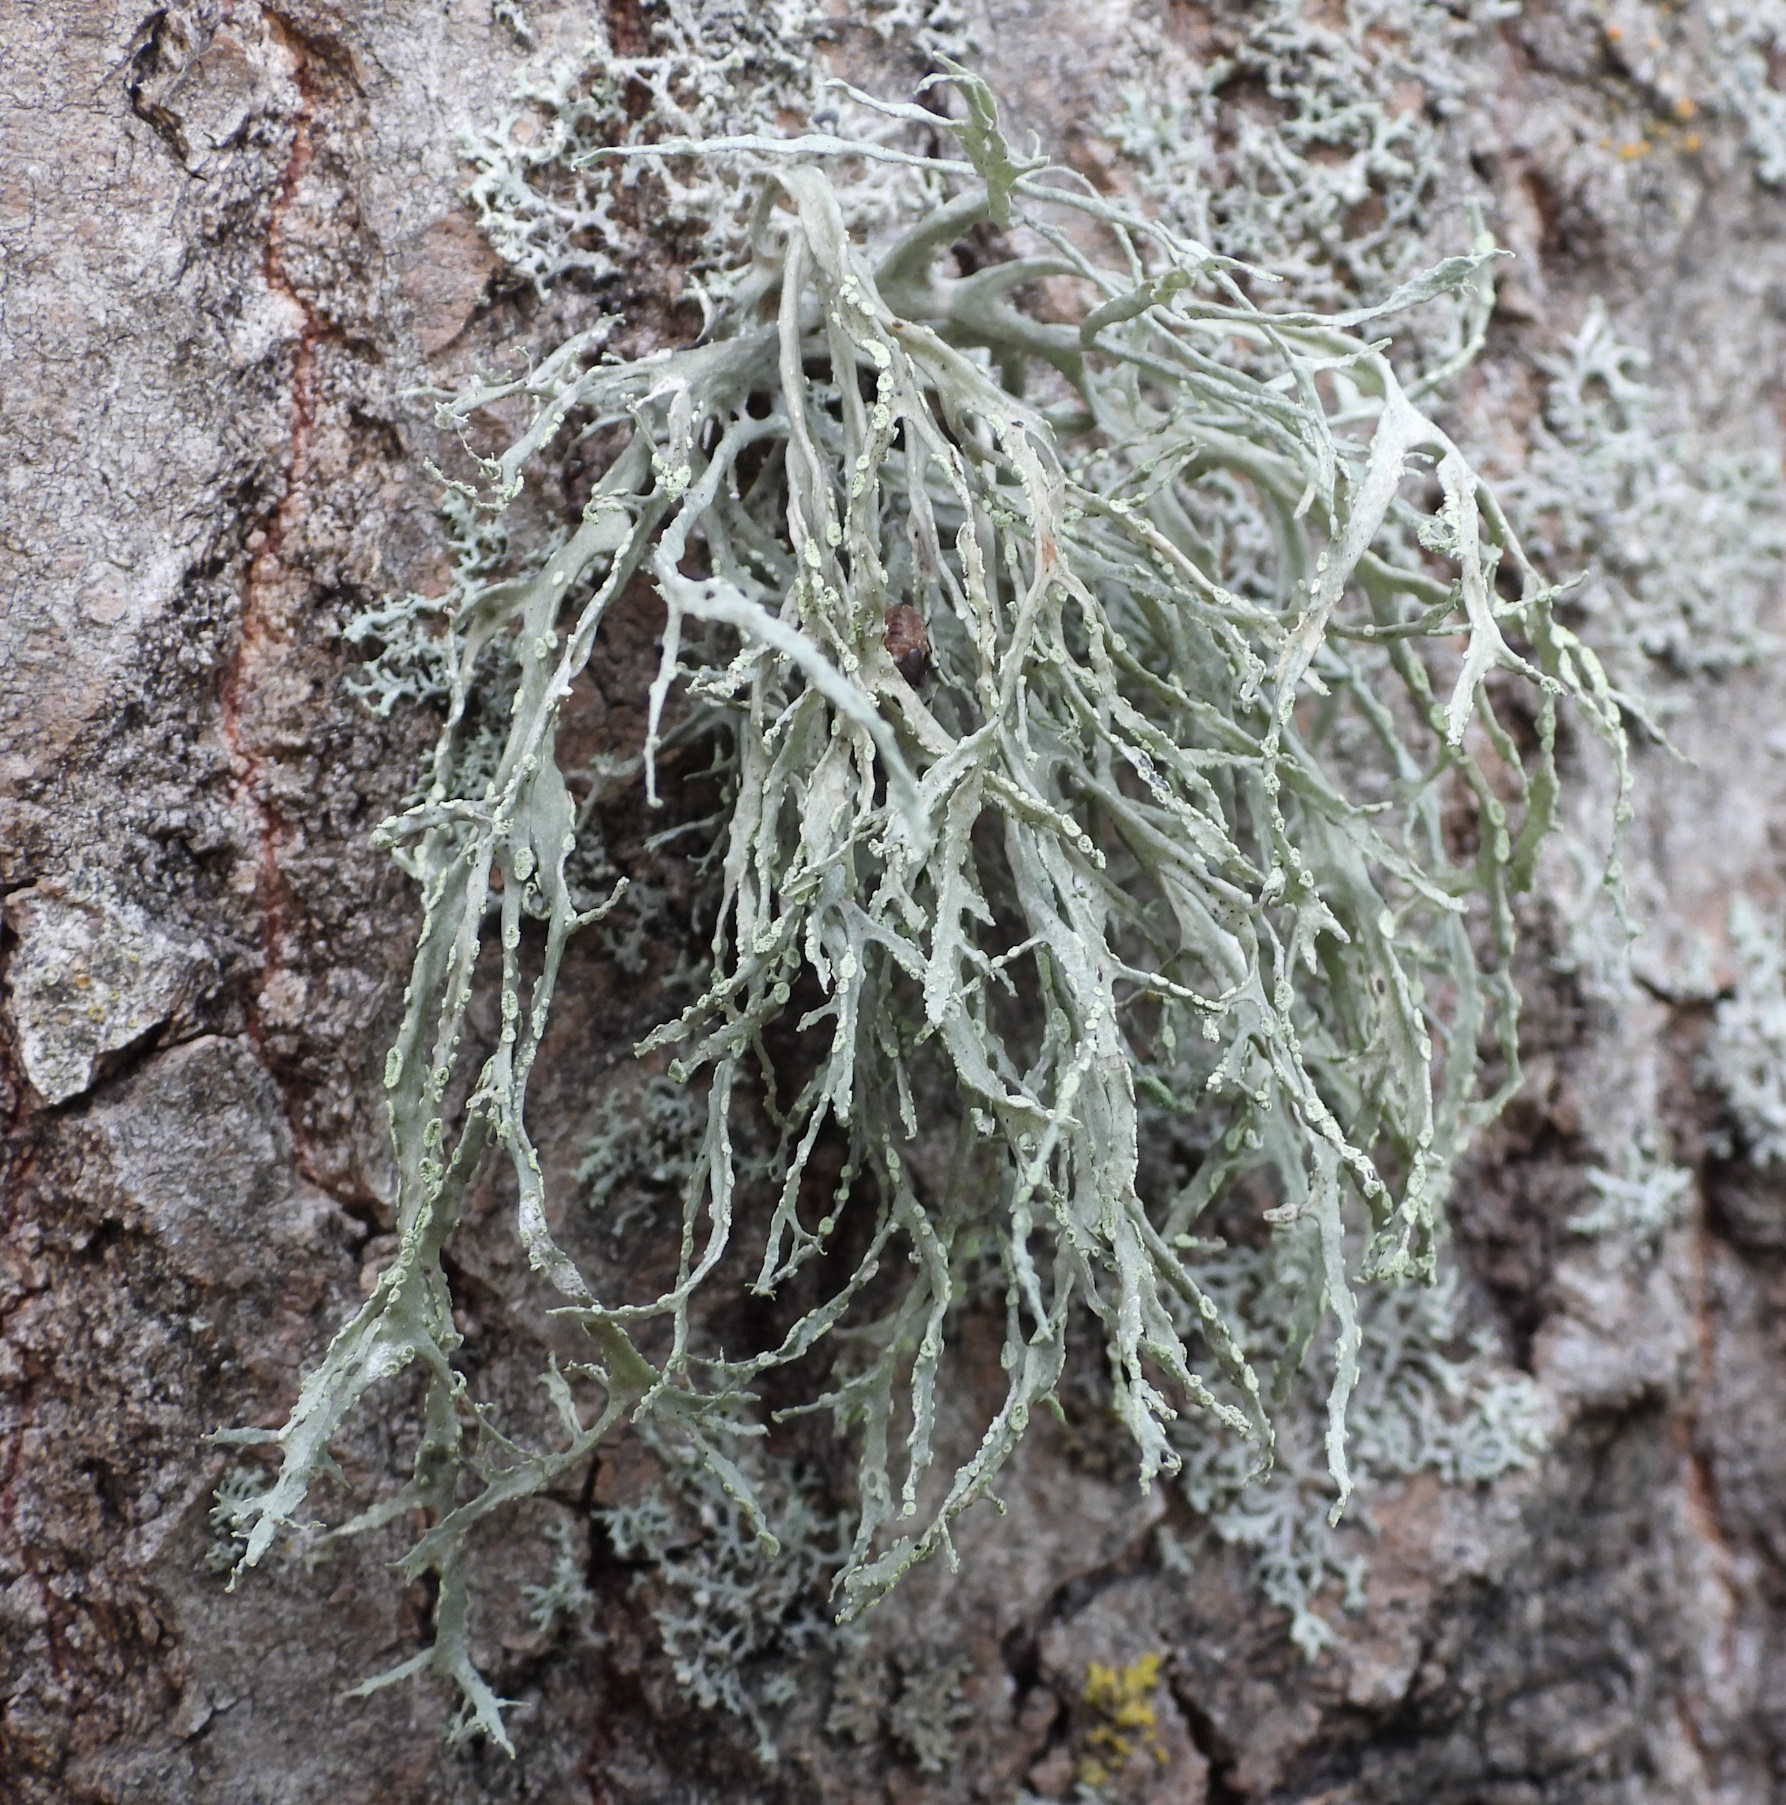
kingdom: Fungi
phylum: Ascomycota
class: Lecanoromycetes
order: Lecanorales
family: Ramalinaceae
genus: Ramalina
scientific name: Ramalina farinacea
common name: Farinose cartilage lichen
